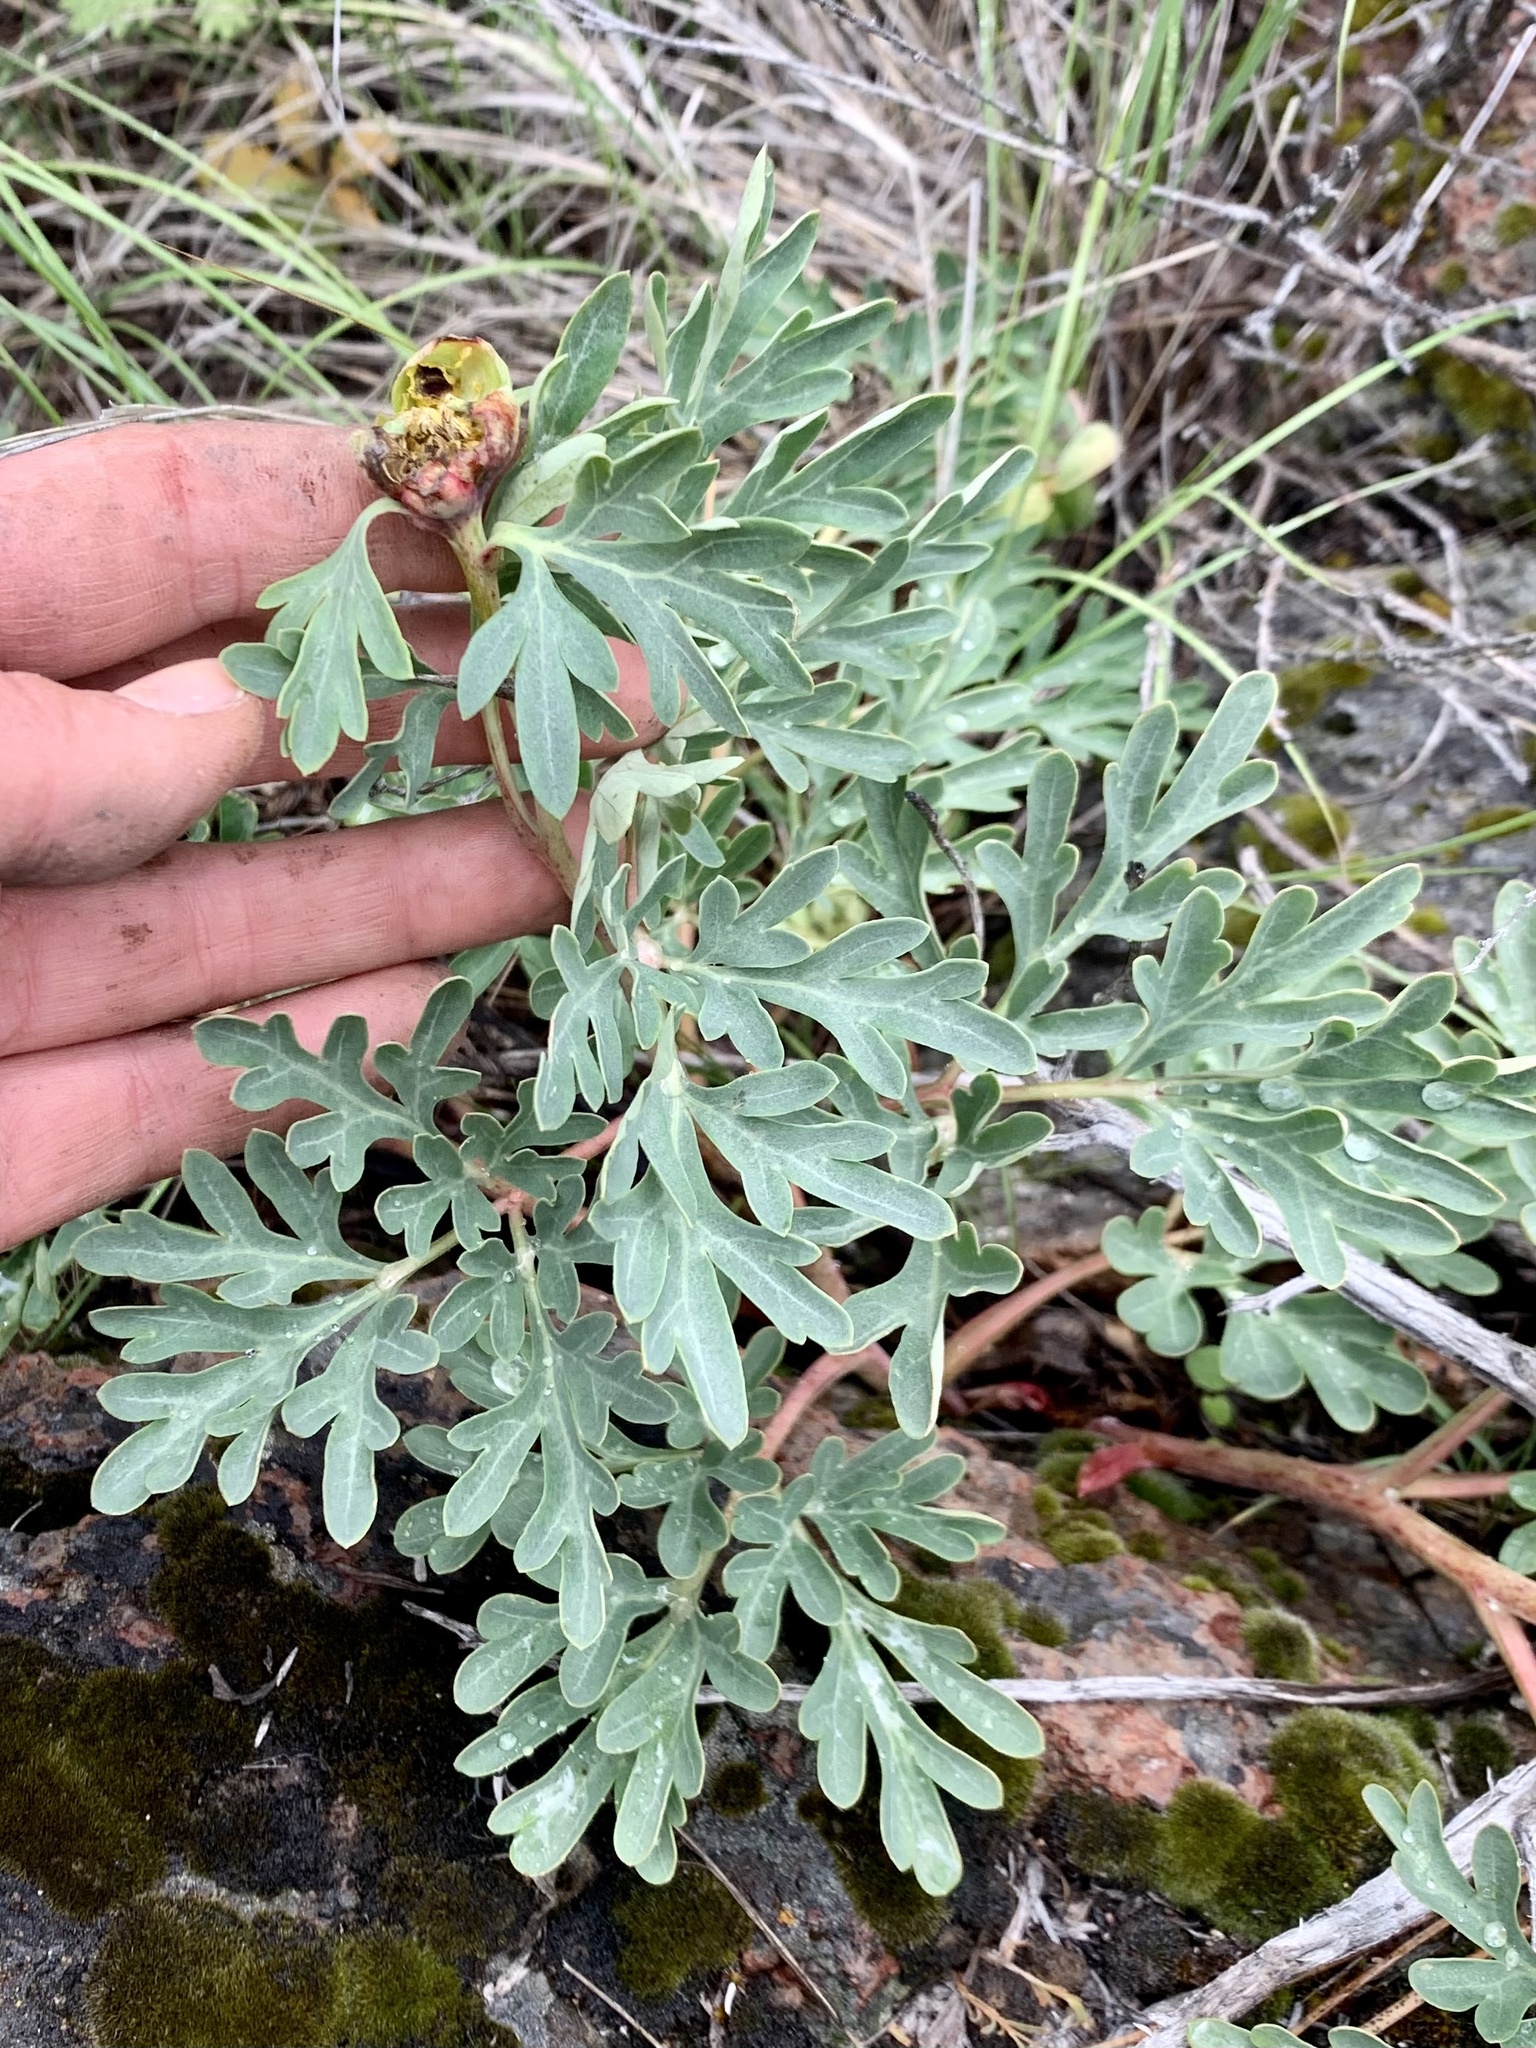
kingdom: Plantae
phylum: Tracheophyta
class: Magnoliopsida
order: Saxifragales
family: Paeoniaceae
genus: Paeonia
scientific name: Paeonia brownii
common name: Brown's peony
